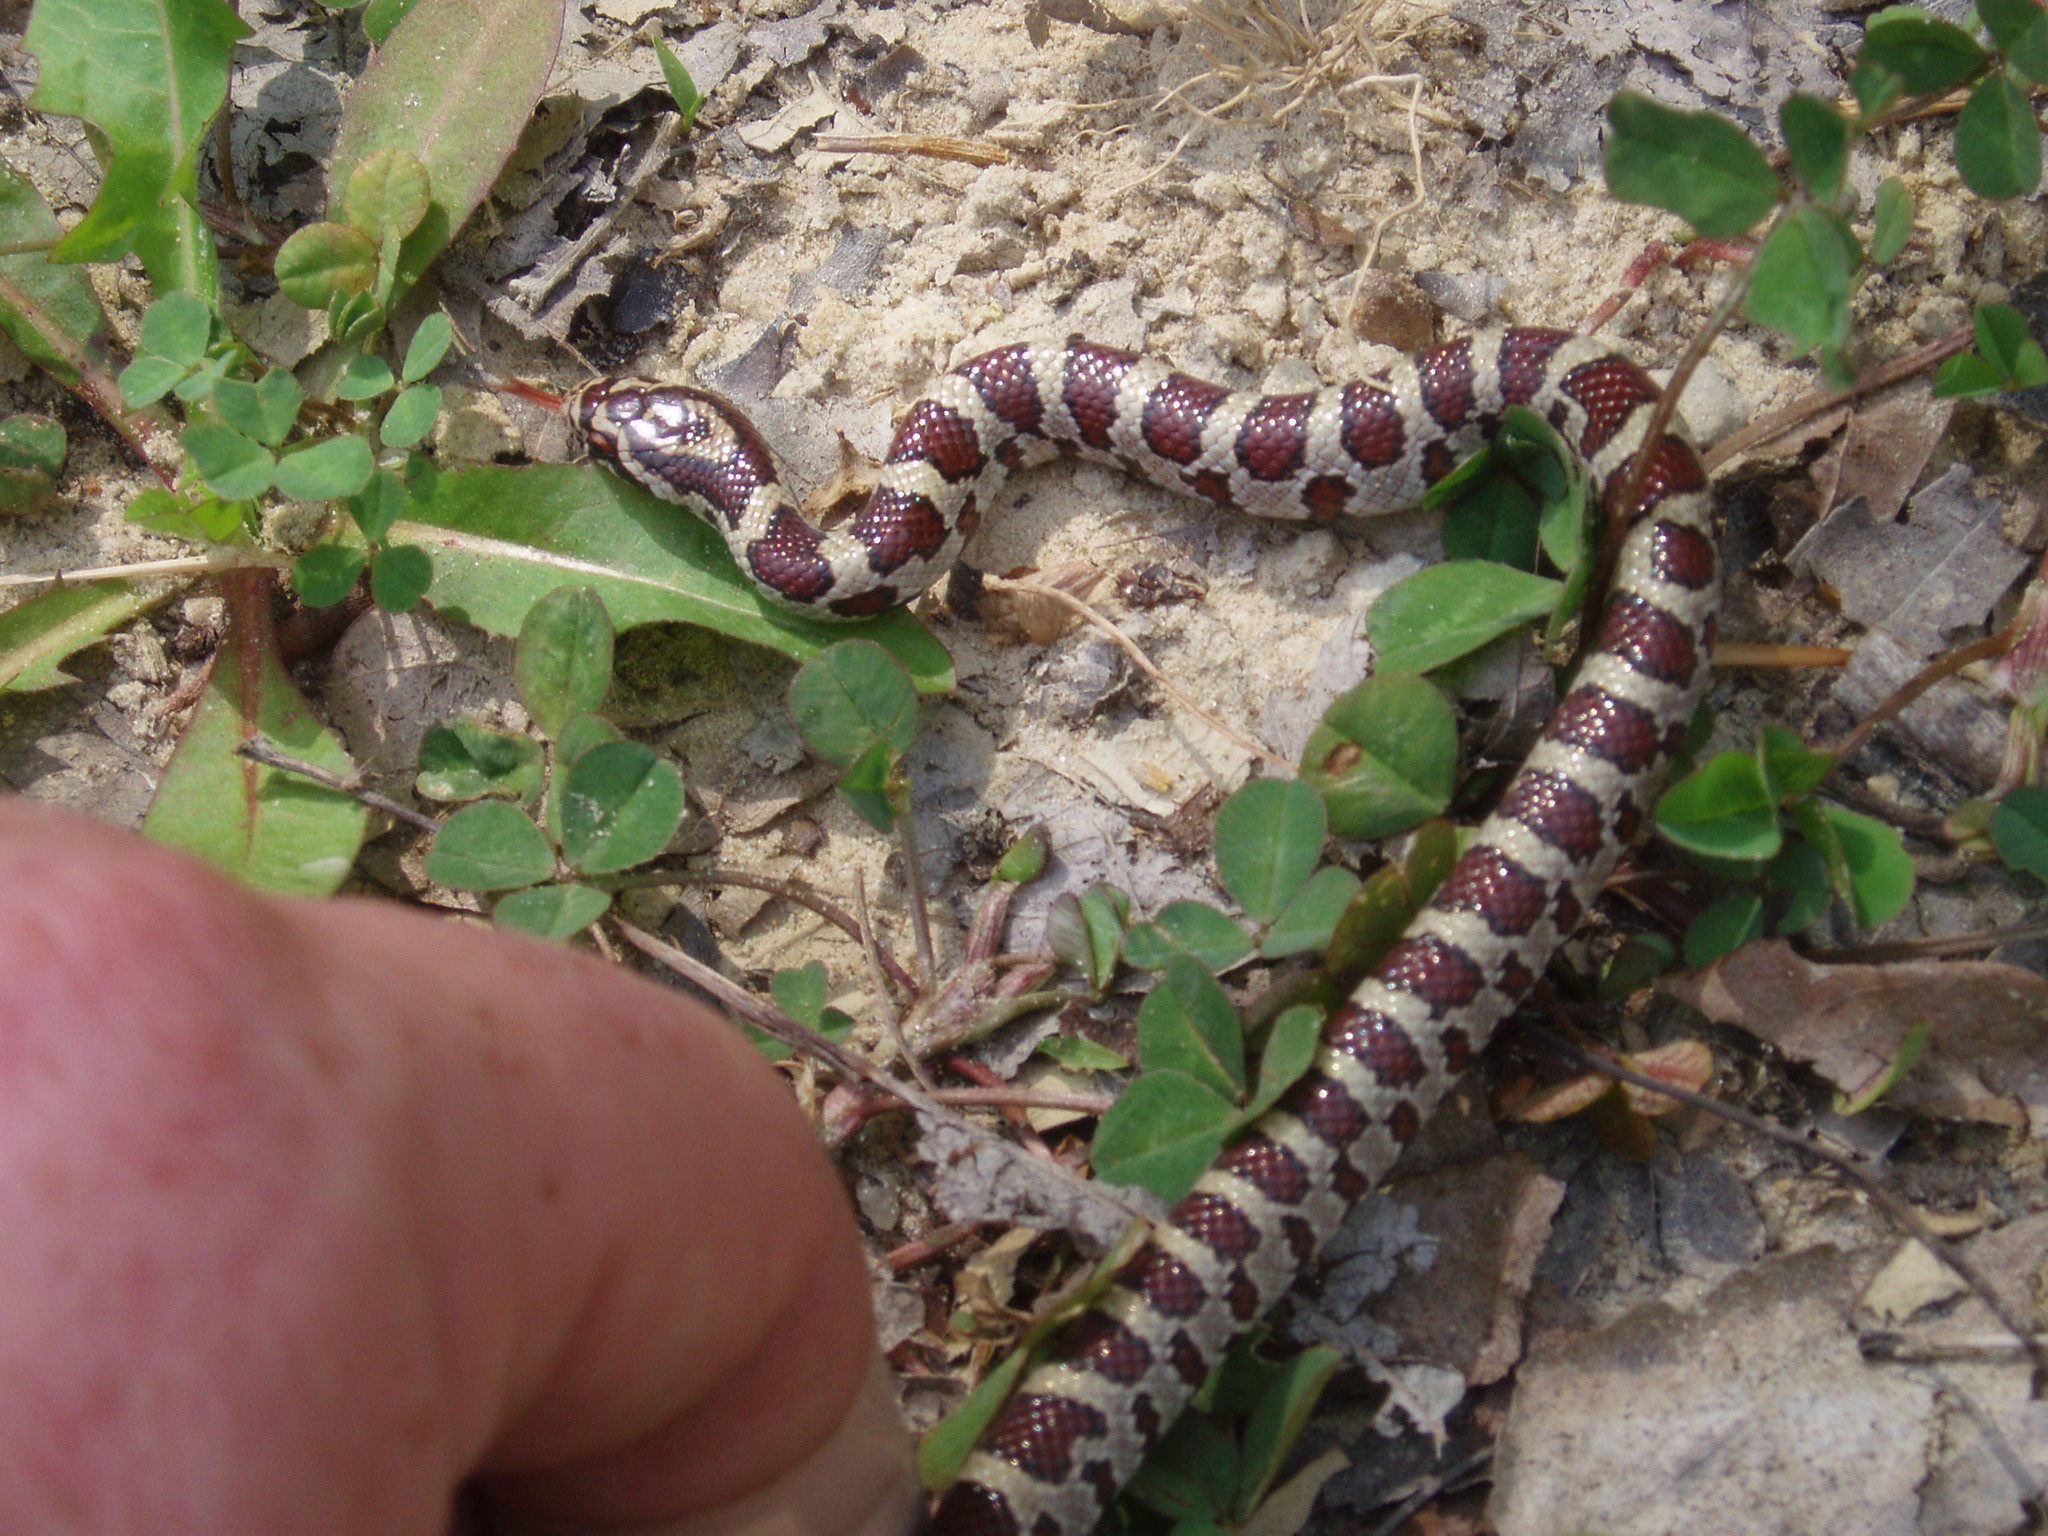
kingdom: Animalia
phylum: Chordata
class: Squamata
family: Colubridae
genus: Lampropeltis
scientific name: Lampropeltis triangulum
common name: Eastern milksnake
